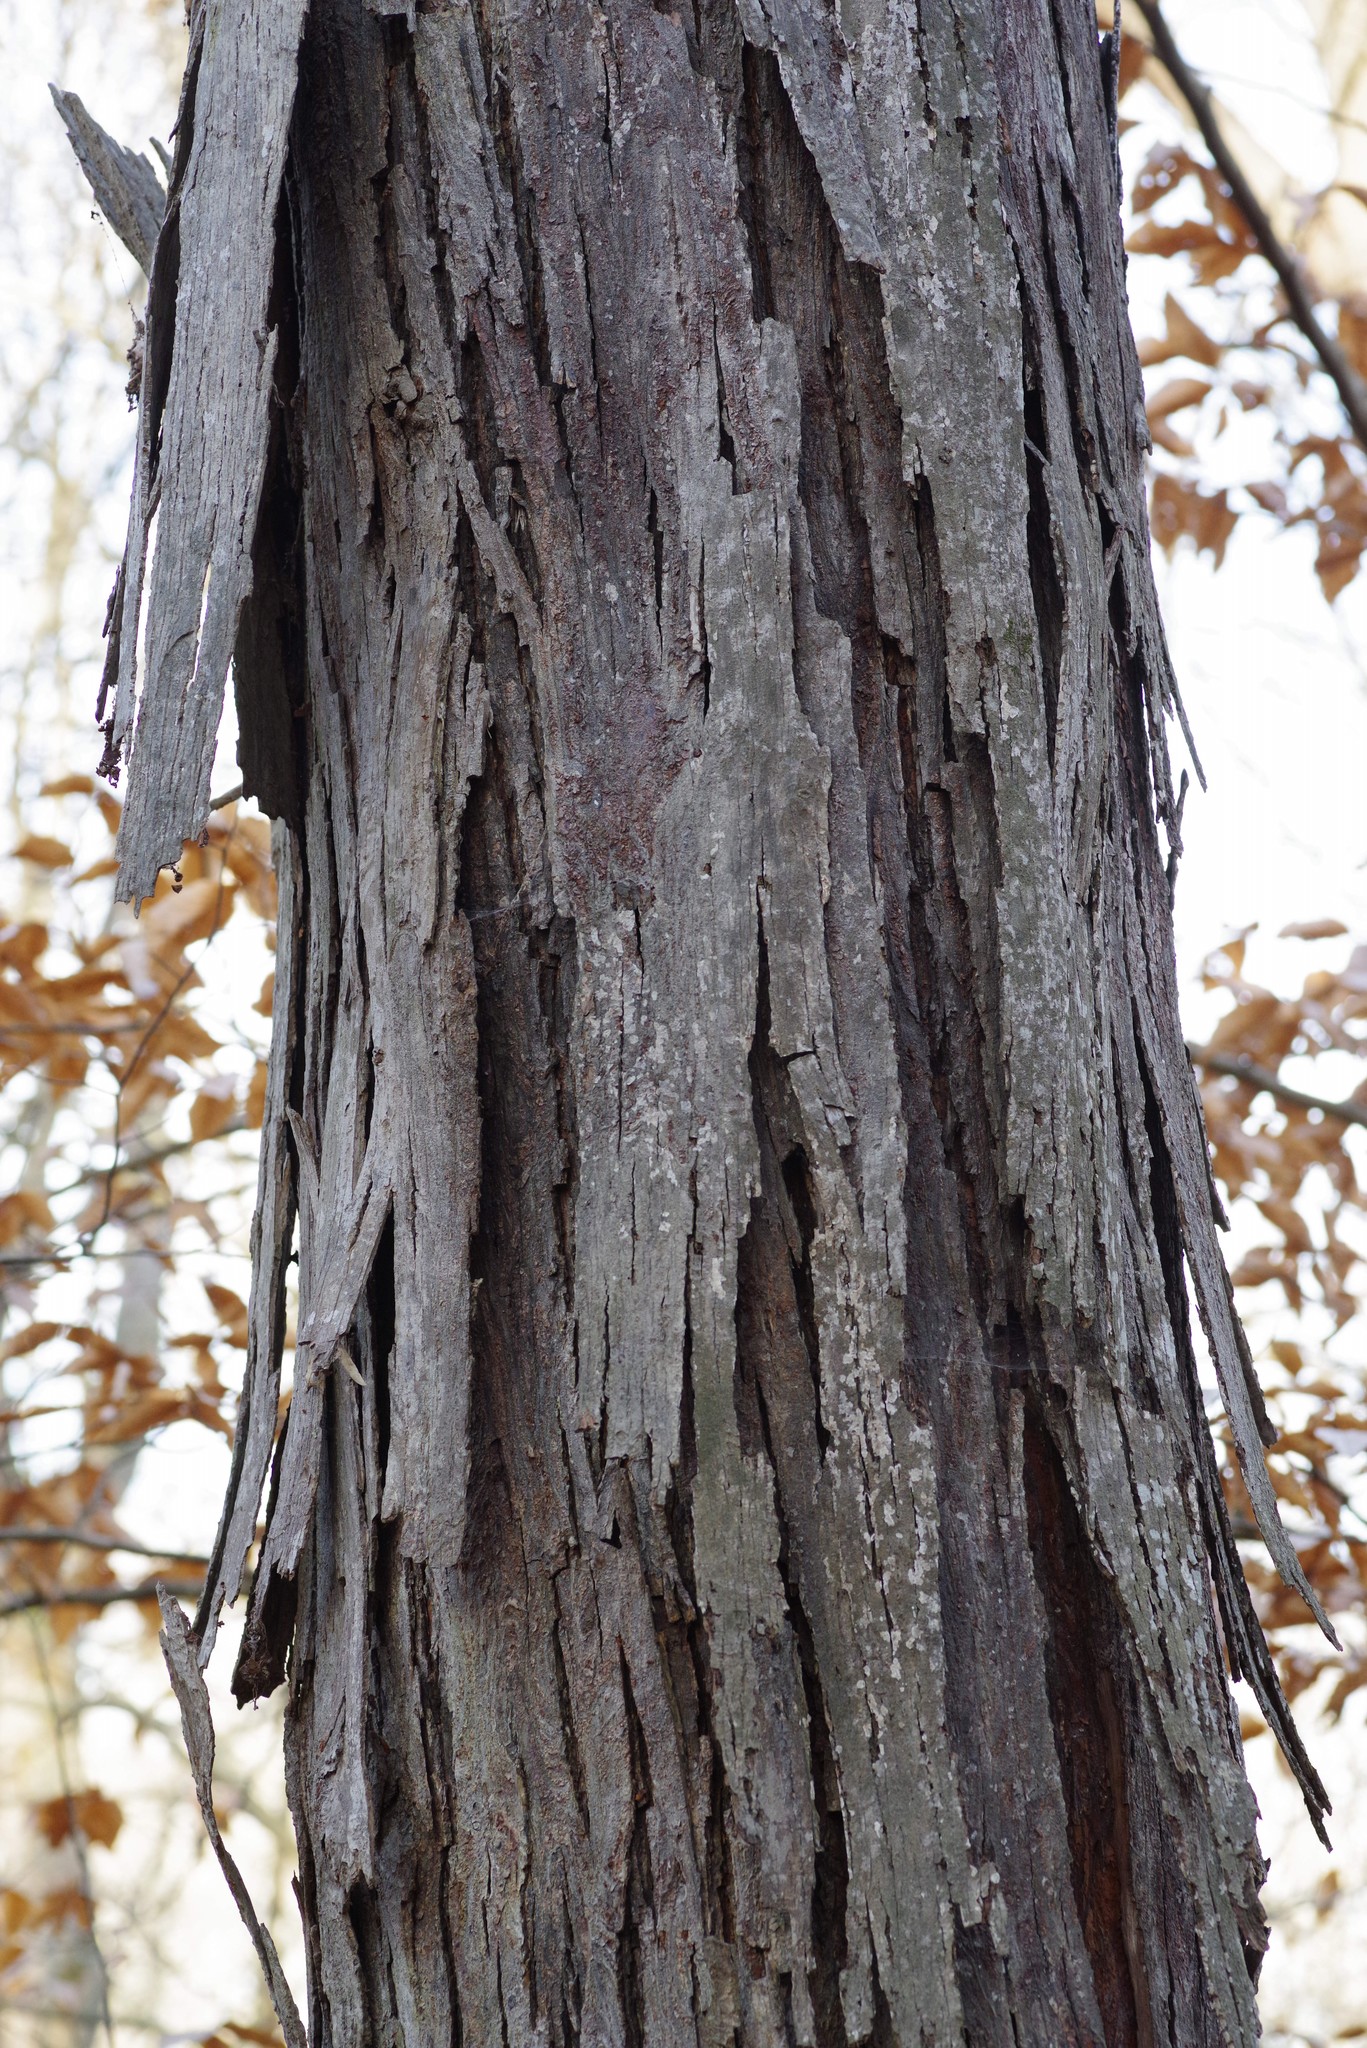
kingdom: Plantae
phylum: Tracheophyta
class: Magnoliopsida
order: Fagales
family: Juglandaceae
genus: Carya
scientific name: Carya ovata
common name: Shagbark hickory
